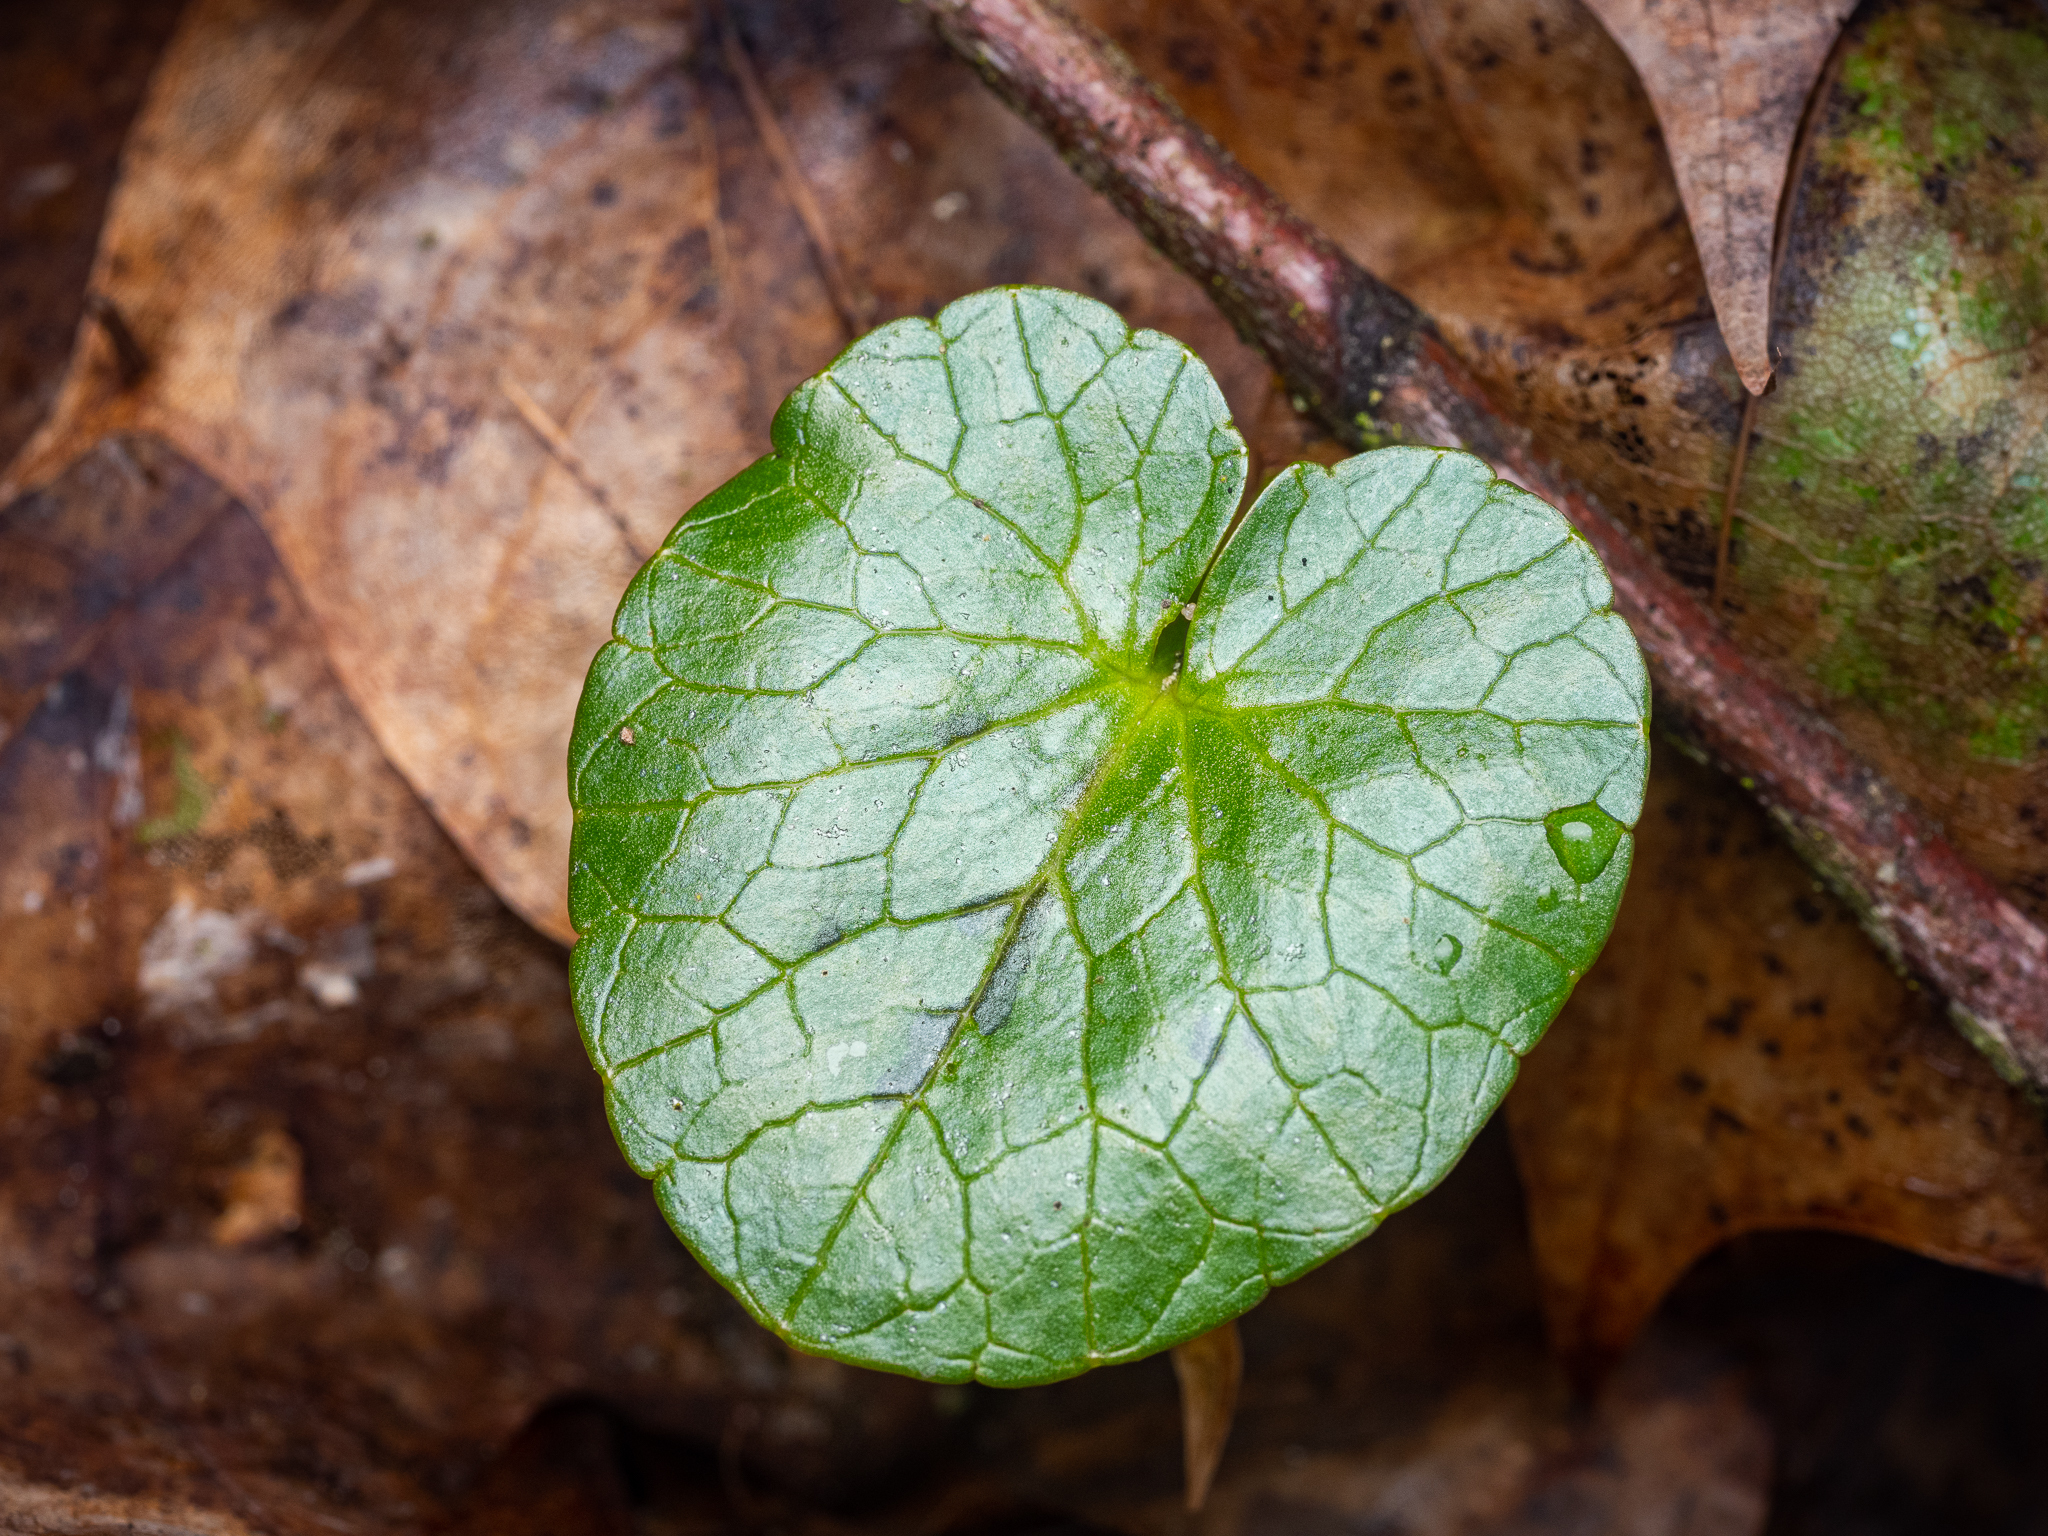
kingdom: Plantae
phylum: Tracheophyta
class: Magnoliopsida
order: Ranunculales
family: Ranunculaceae
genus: Ficaria
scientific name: Ficaria verna
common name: Lesser celandine
